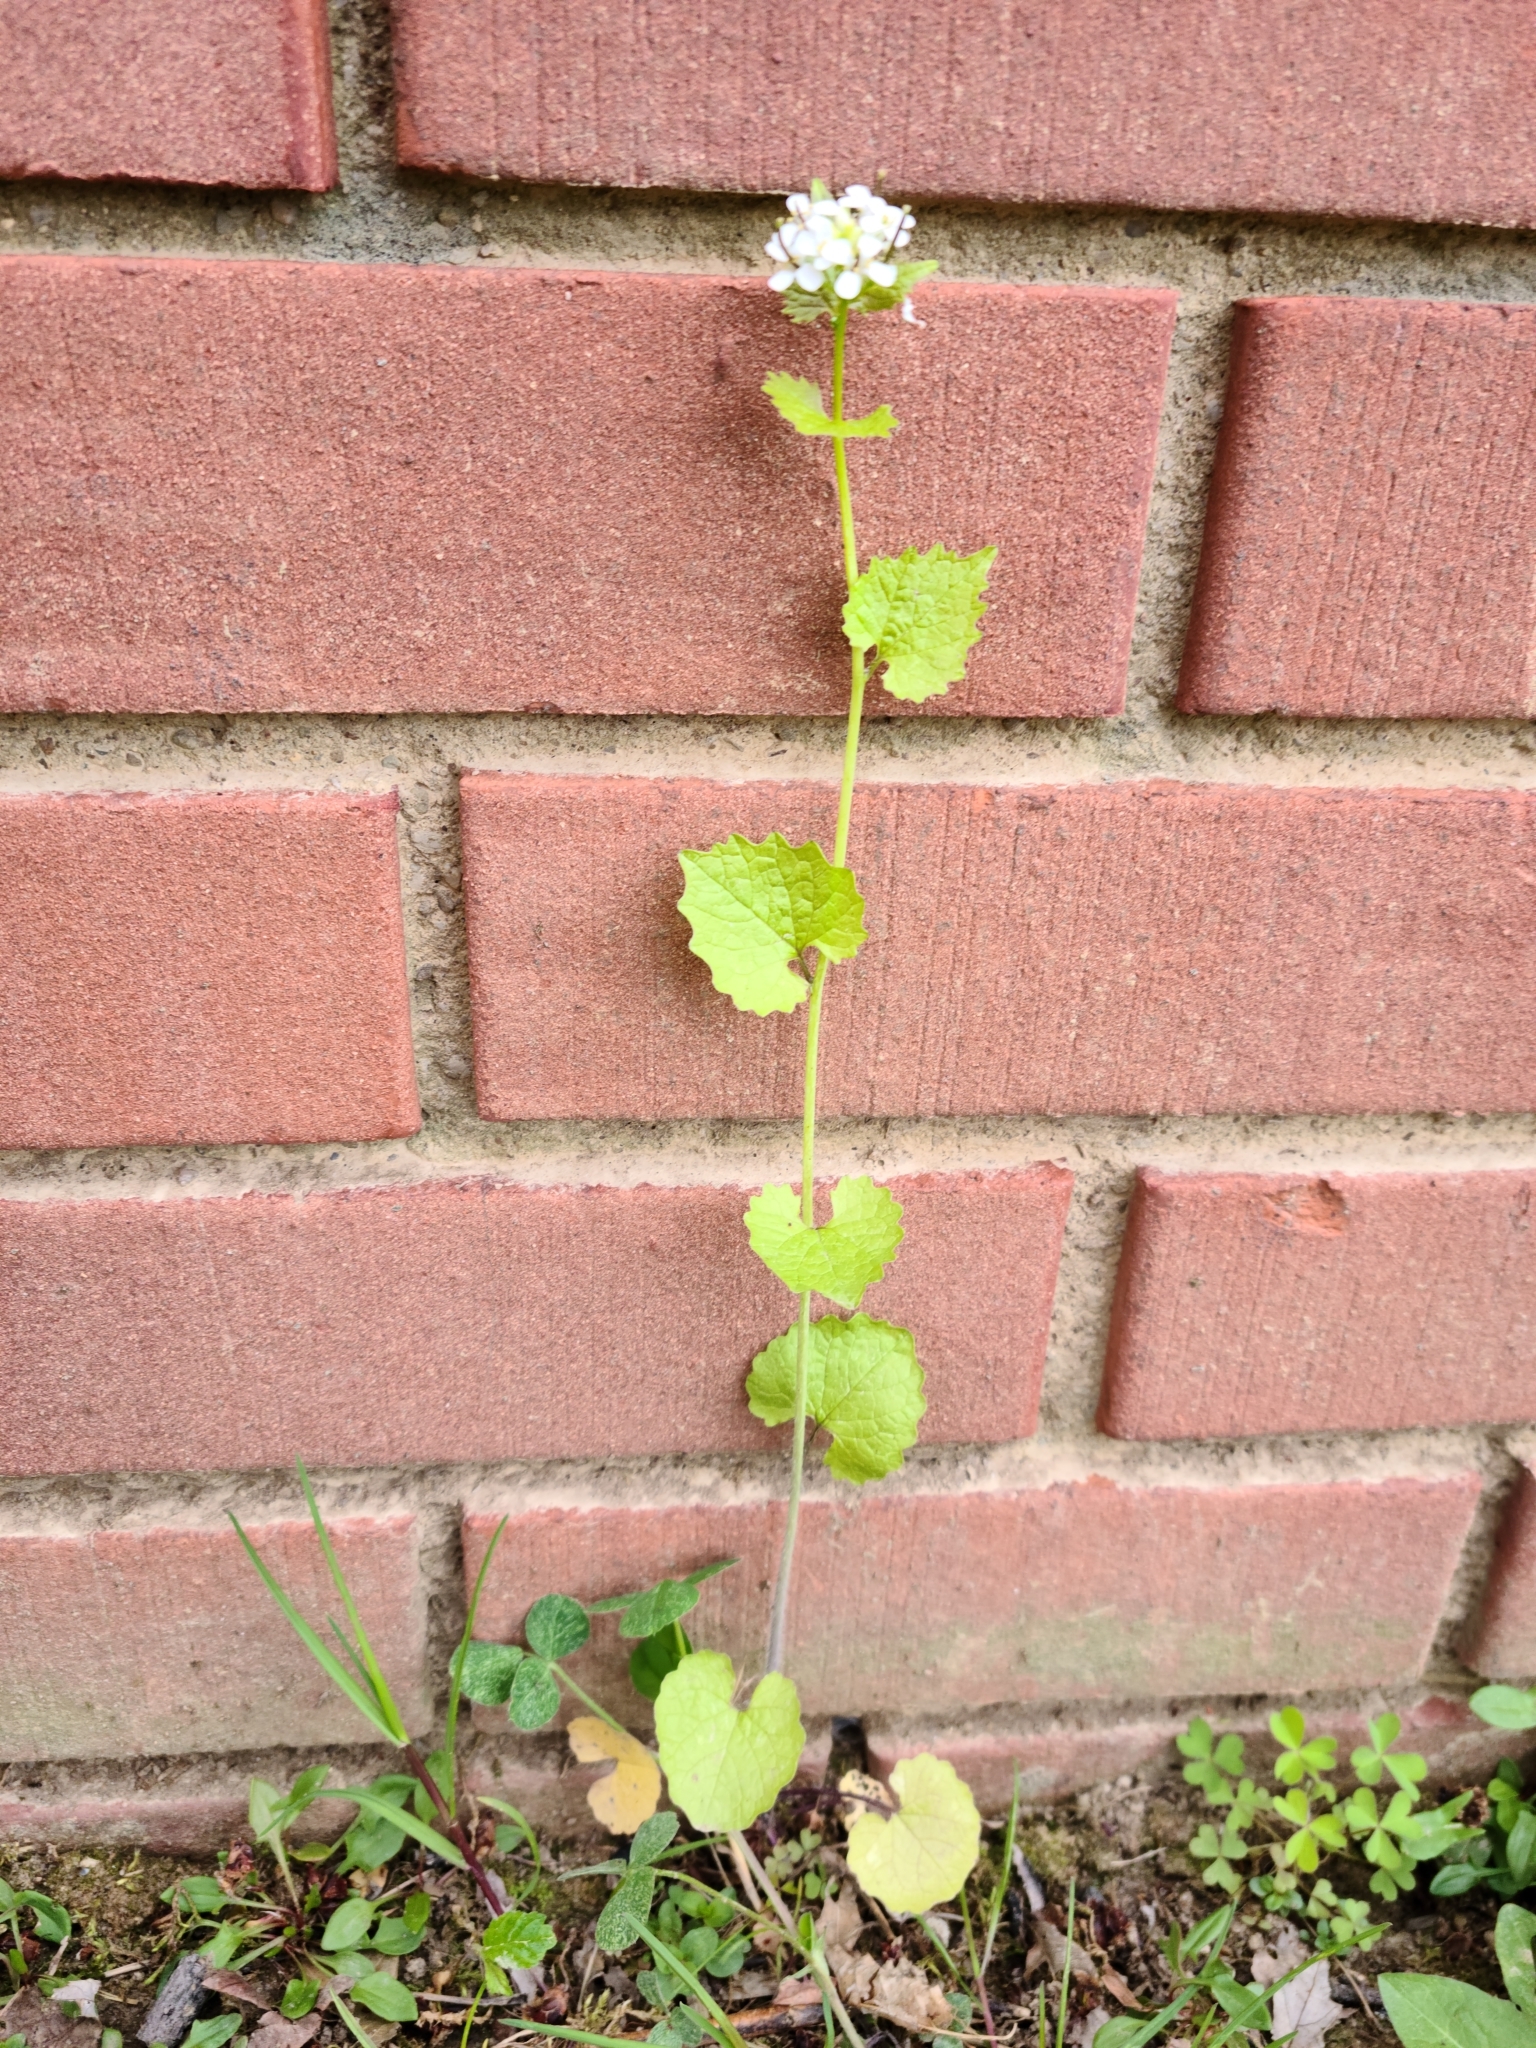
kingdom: Plantae
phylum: Tracheophyta
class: Magnoliopsida
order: Brassicales
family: Brassicaceae
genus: Alliaria
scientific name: Alliaria petiolata
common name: Garlic mustard
